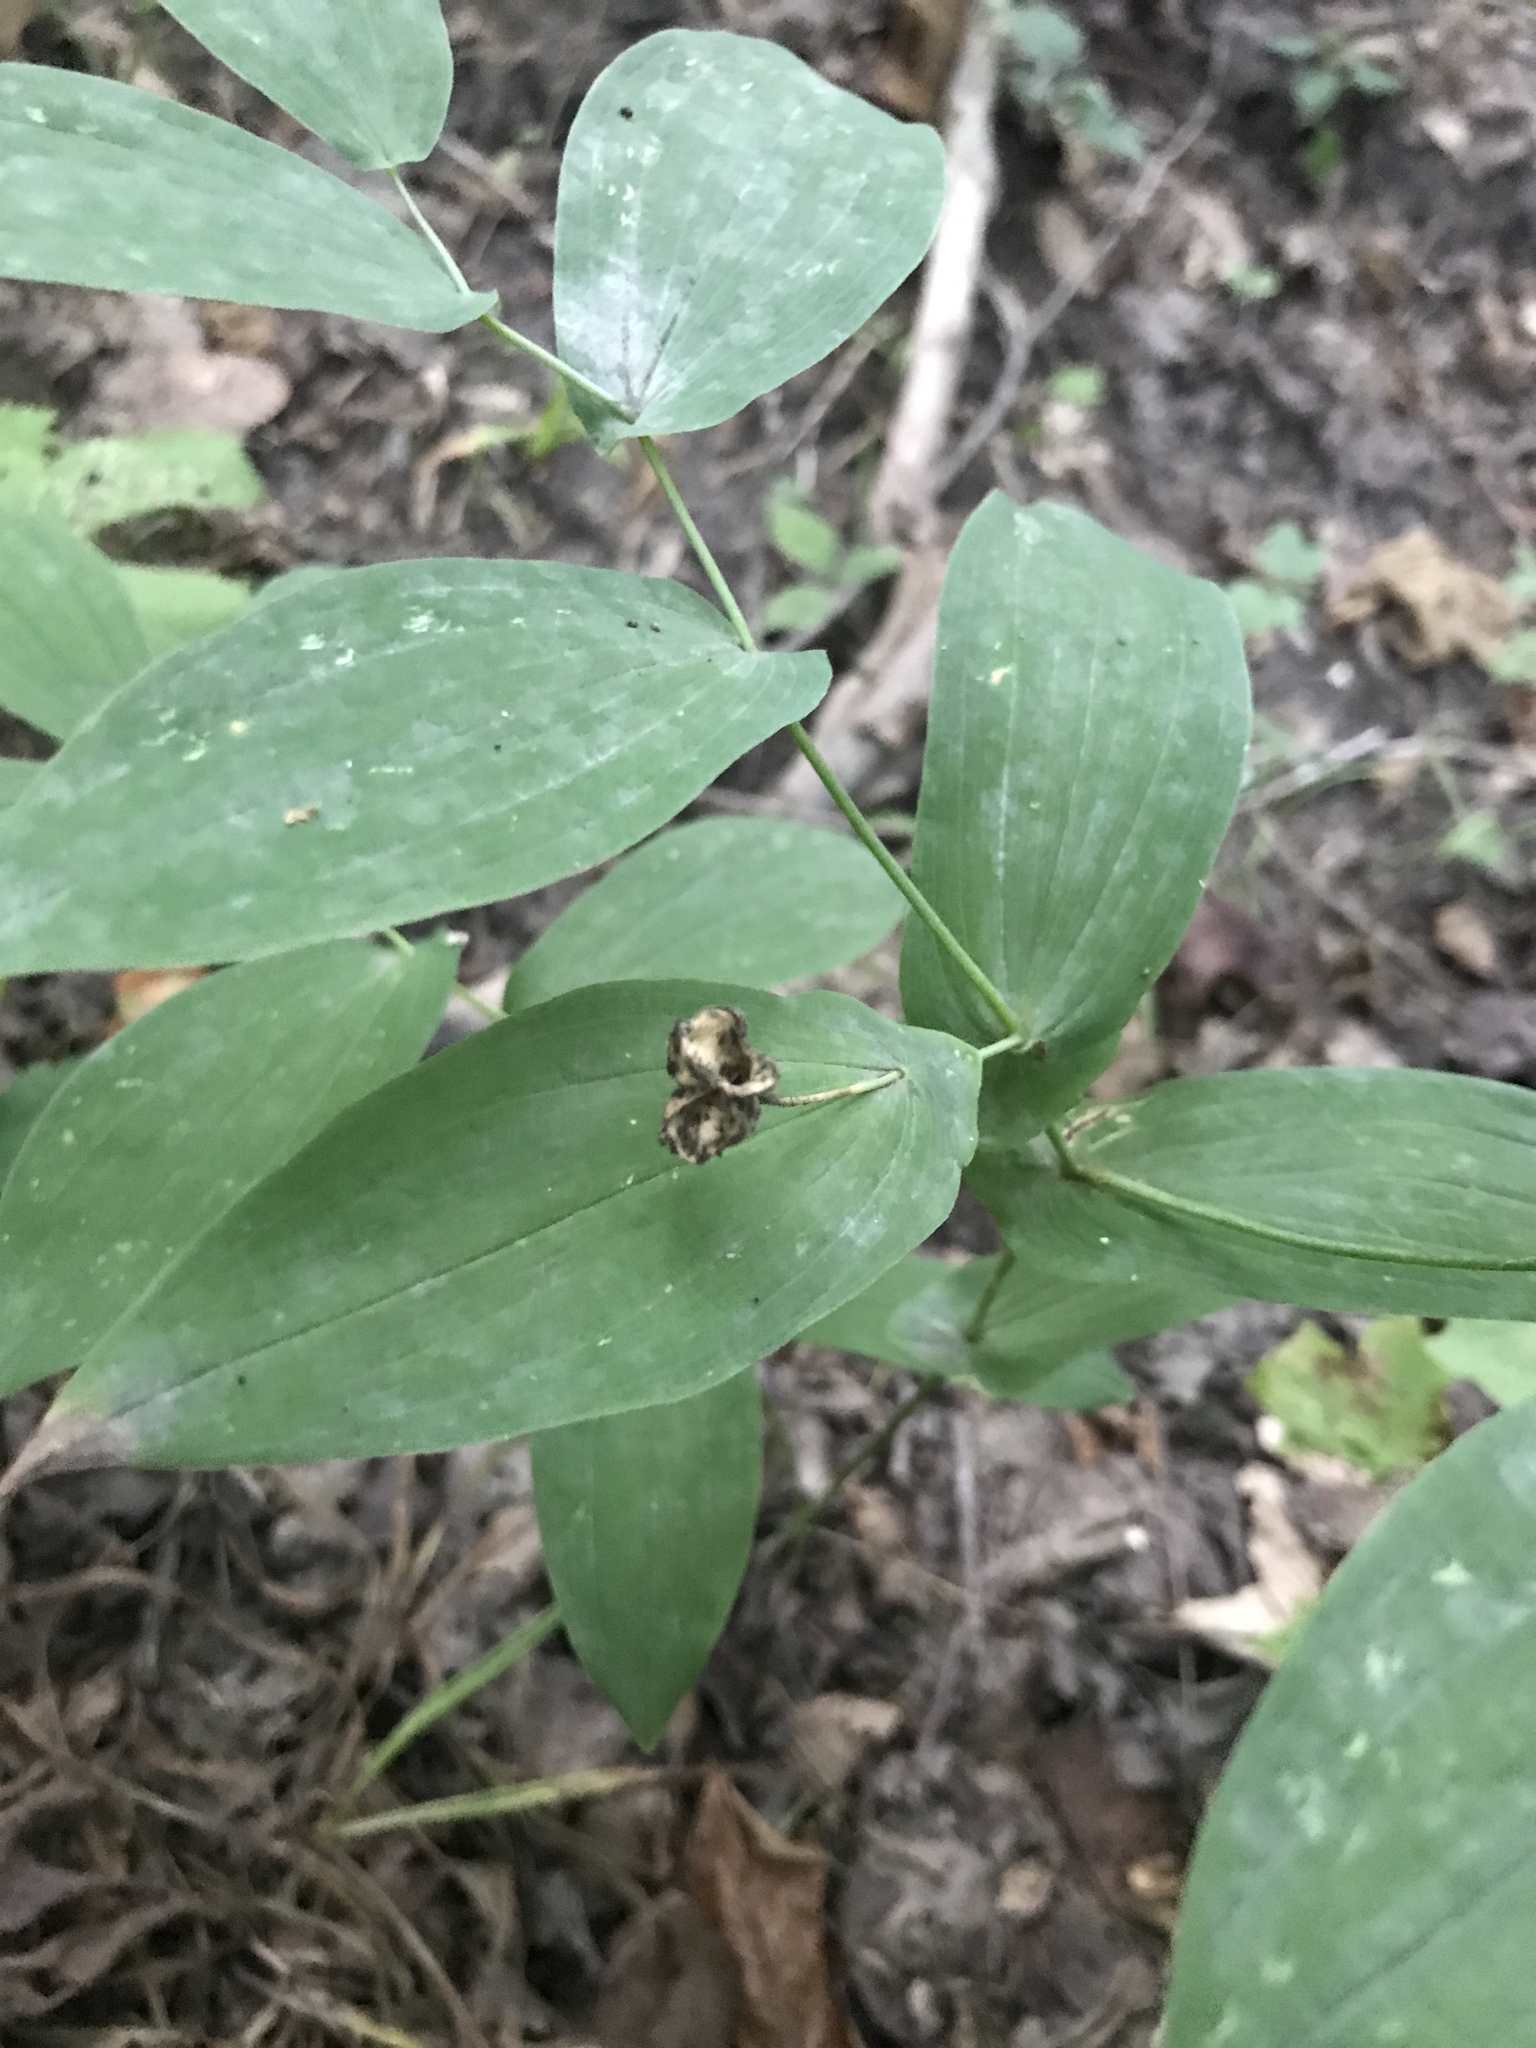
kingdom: Plantae
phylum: Tracheophyta
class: Liliopsida
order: Liliales
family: Colchicaceae
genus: Uvularia
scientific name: Uvularia grandiflora
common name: Bellwort
